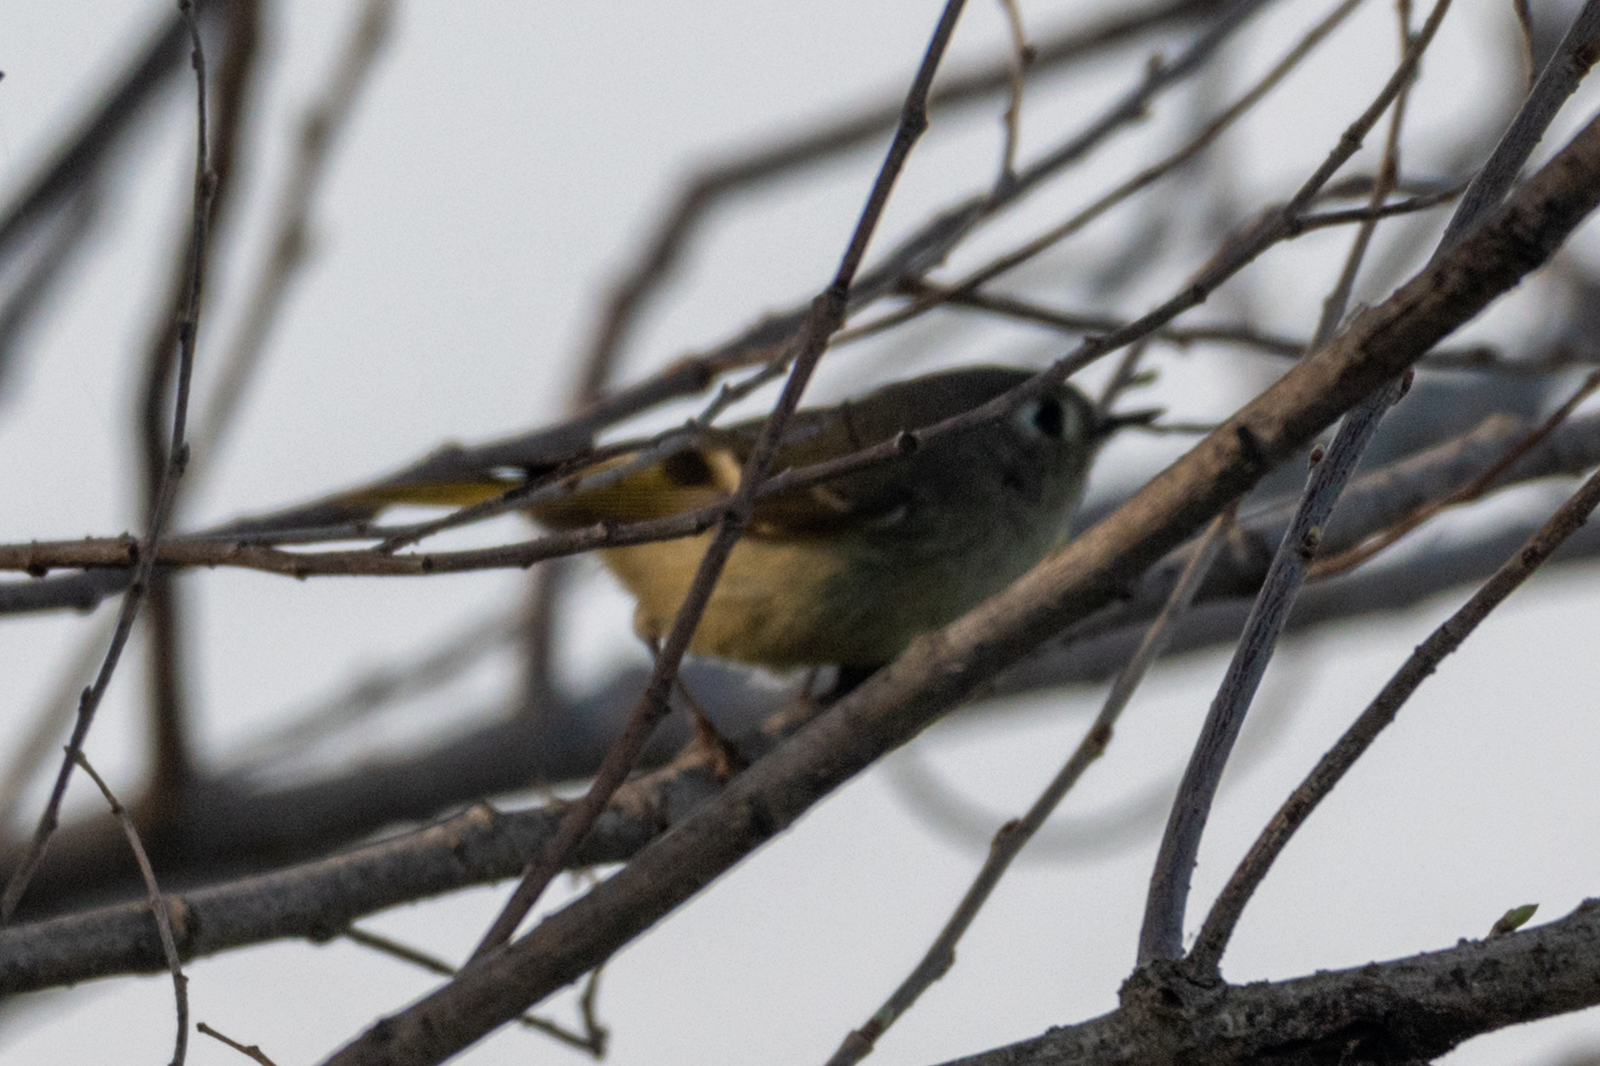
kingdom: Animalia
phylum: Chordata
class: Aves
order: Passeriformes
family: Regulidae
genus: Regulus
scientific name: Regulus calendula
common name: Ruby-crowned kinglet
